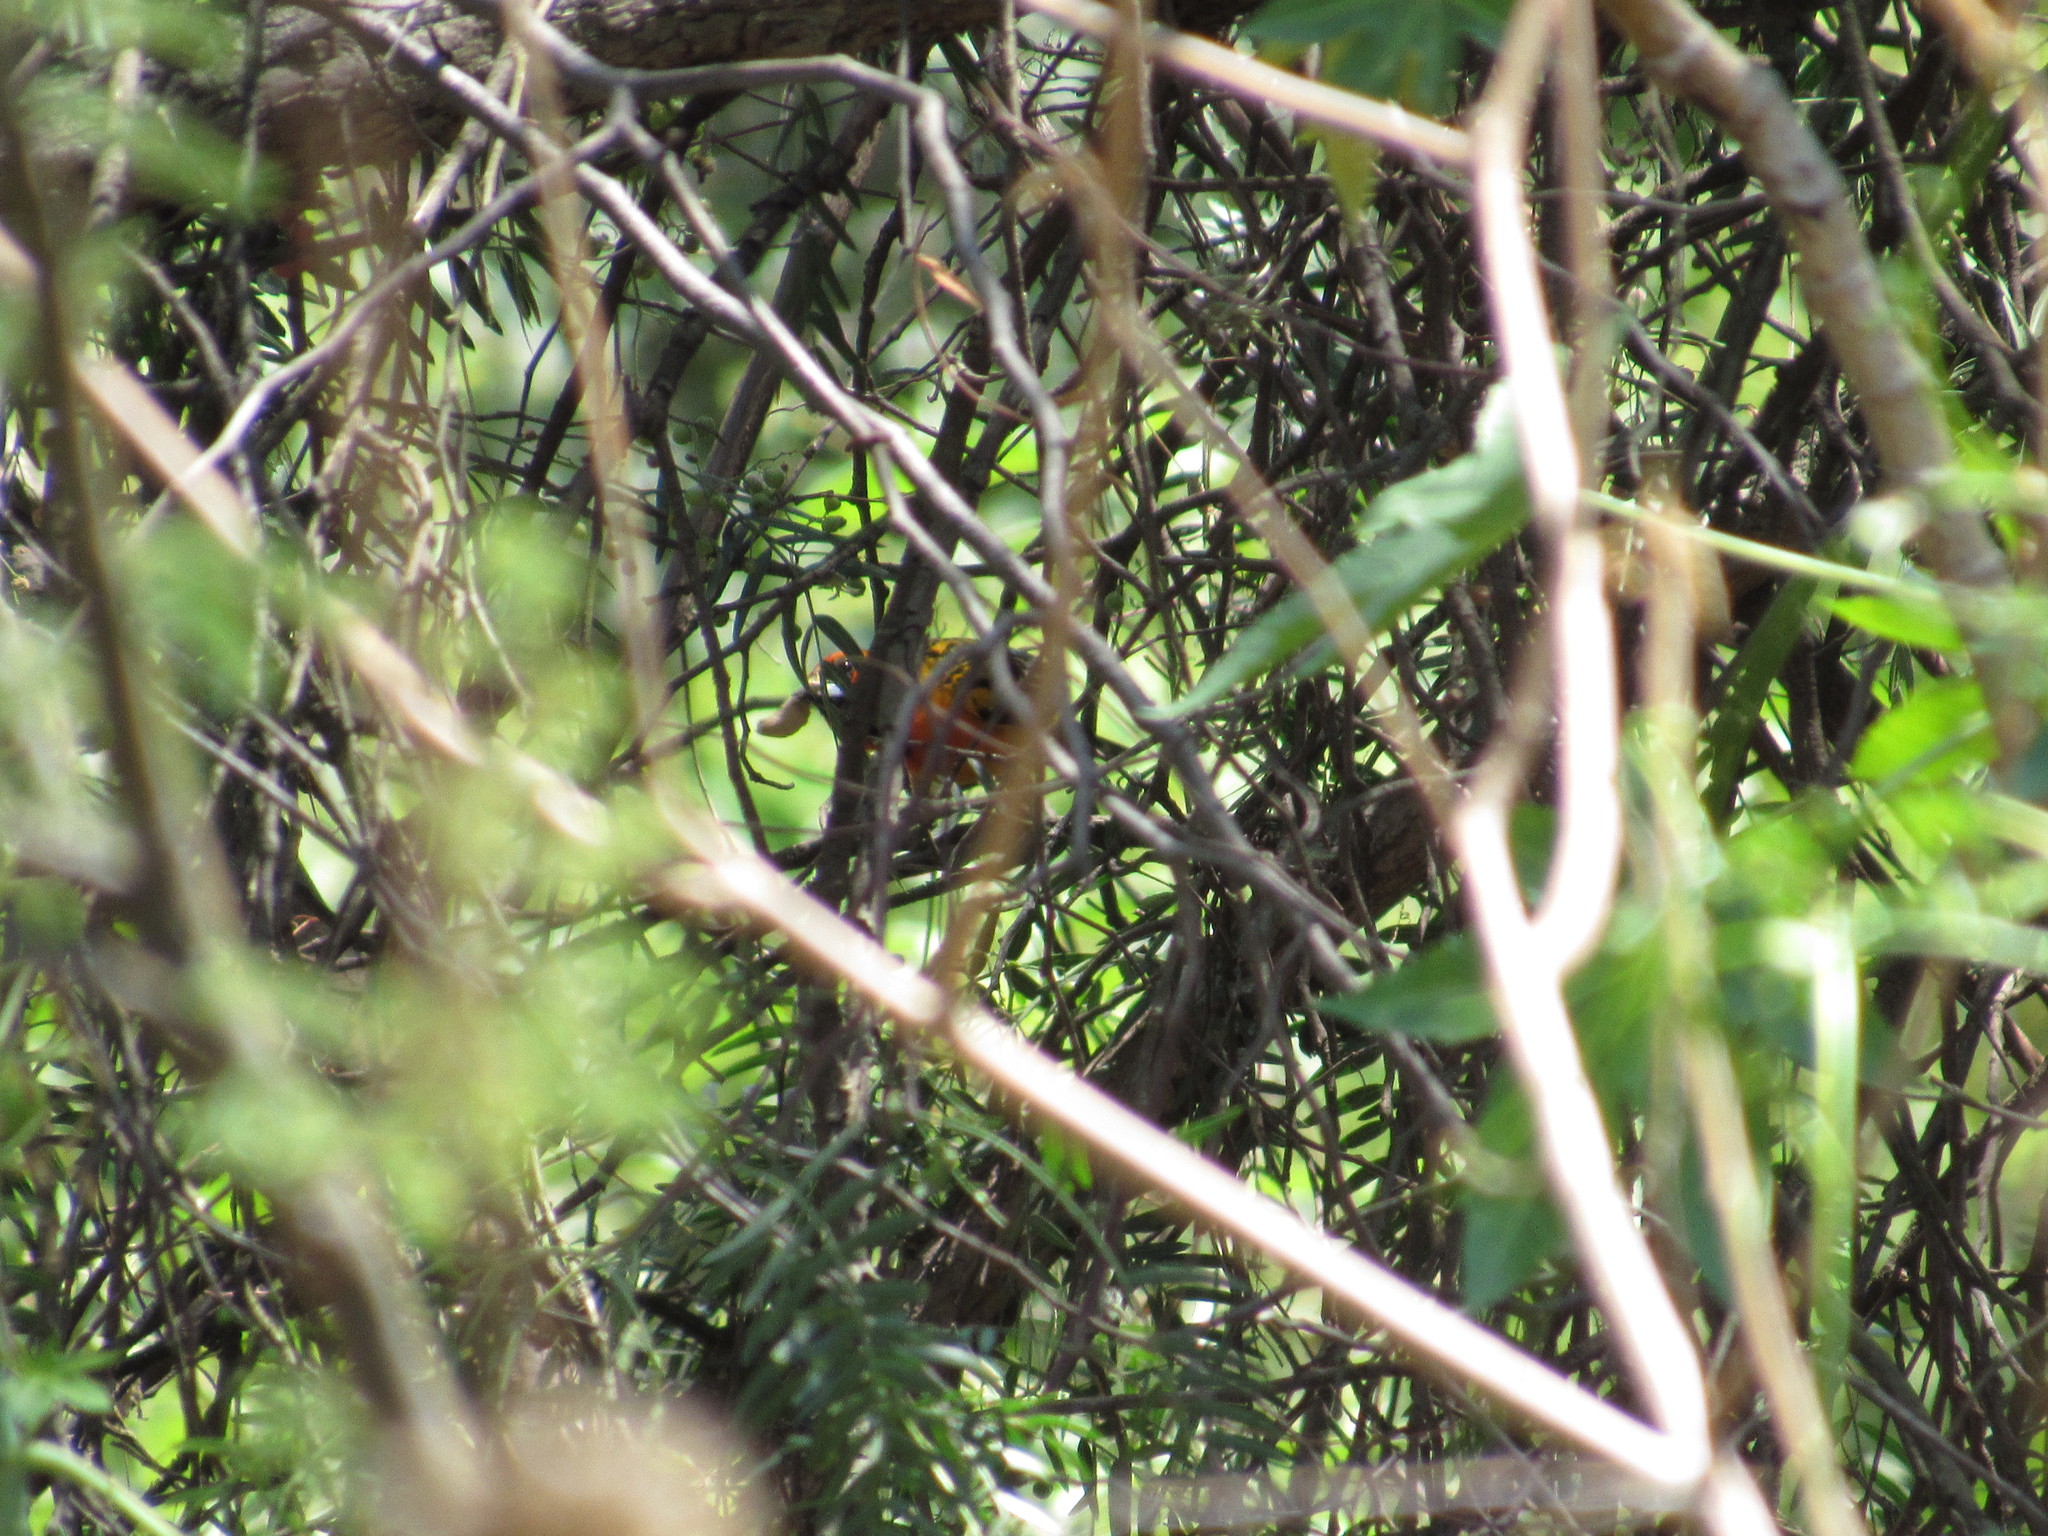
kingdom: Animalia
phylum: Chordata
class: Aves
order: Passeriformes
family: Icteridae
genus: Icterus
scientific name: Icterus pustulatus
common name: Streak-backed oriole
